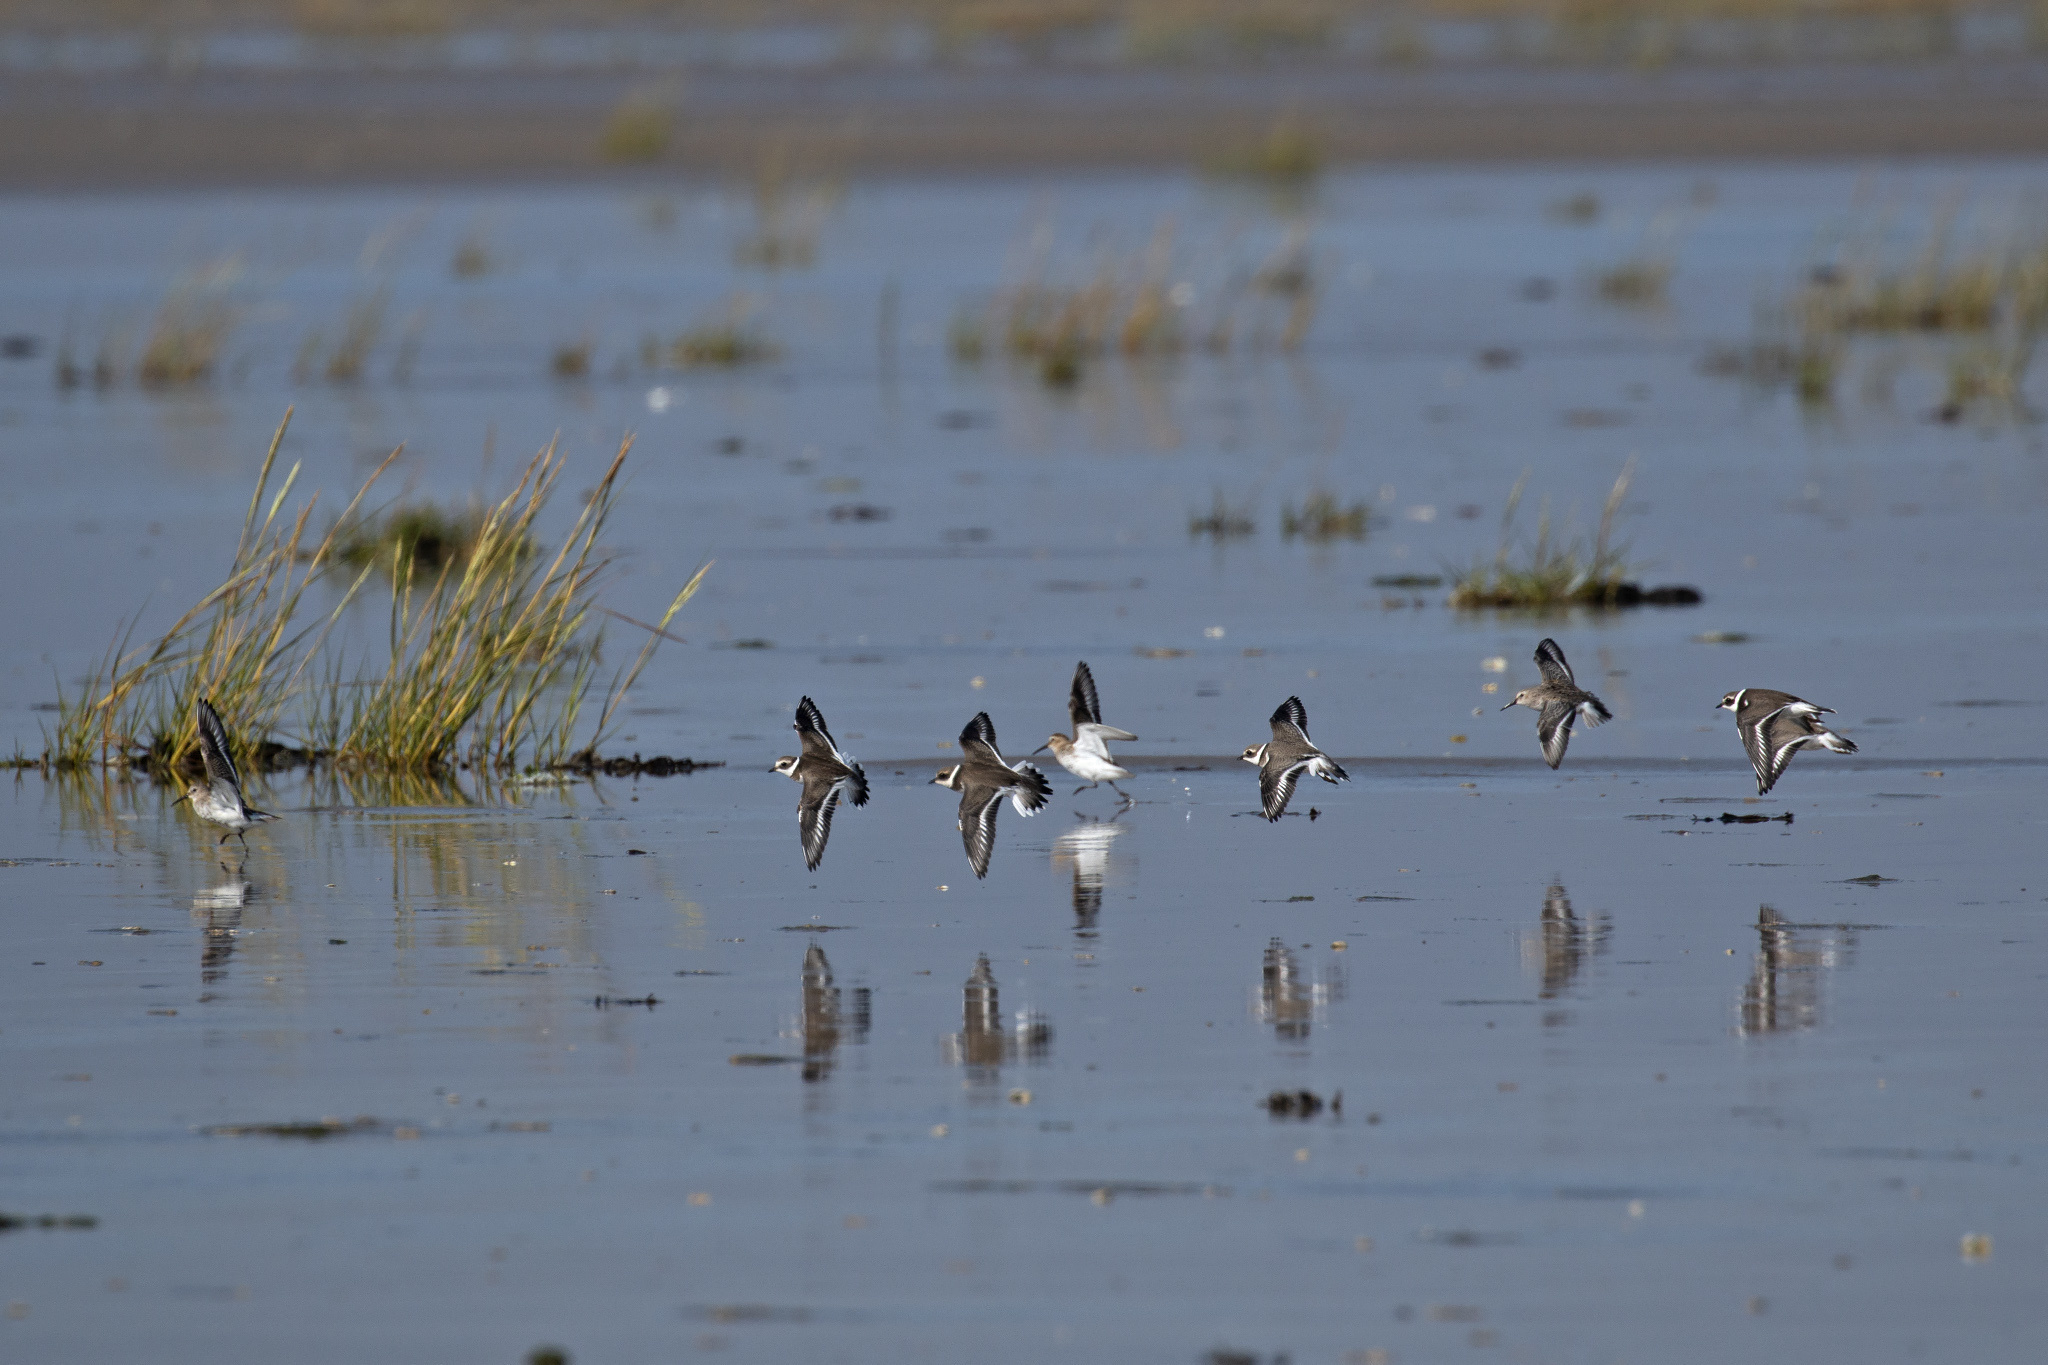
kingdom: Animalia
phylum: Chordata
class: Aves
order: Charadriiformes
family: Charadriidae
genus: Charadrius
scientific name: Charadrius hiaticula
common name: Common ringed plover
